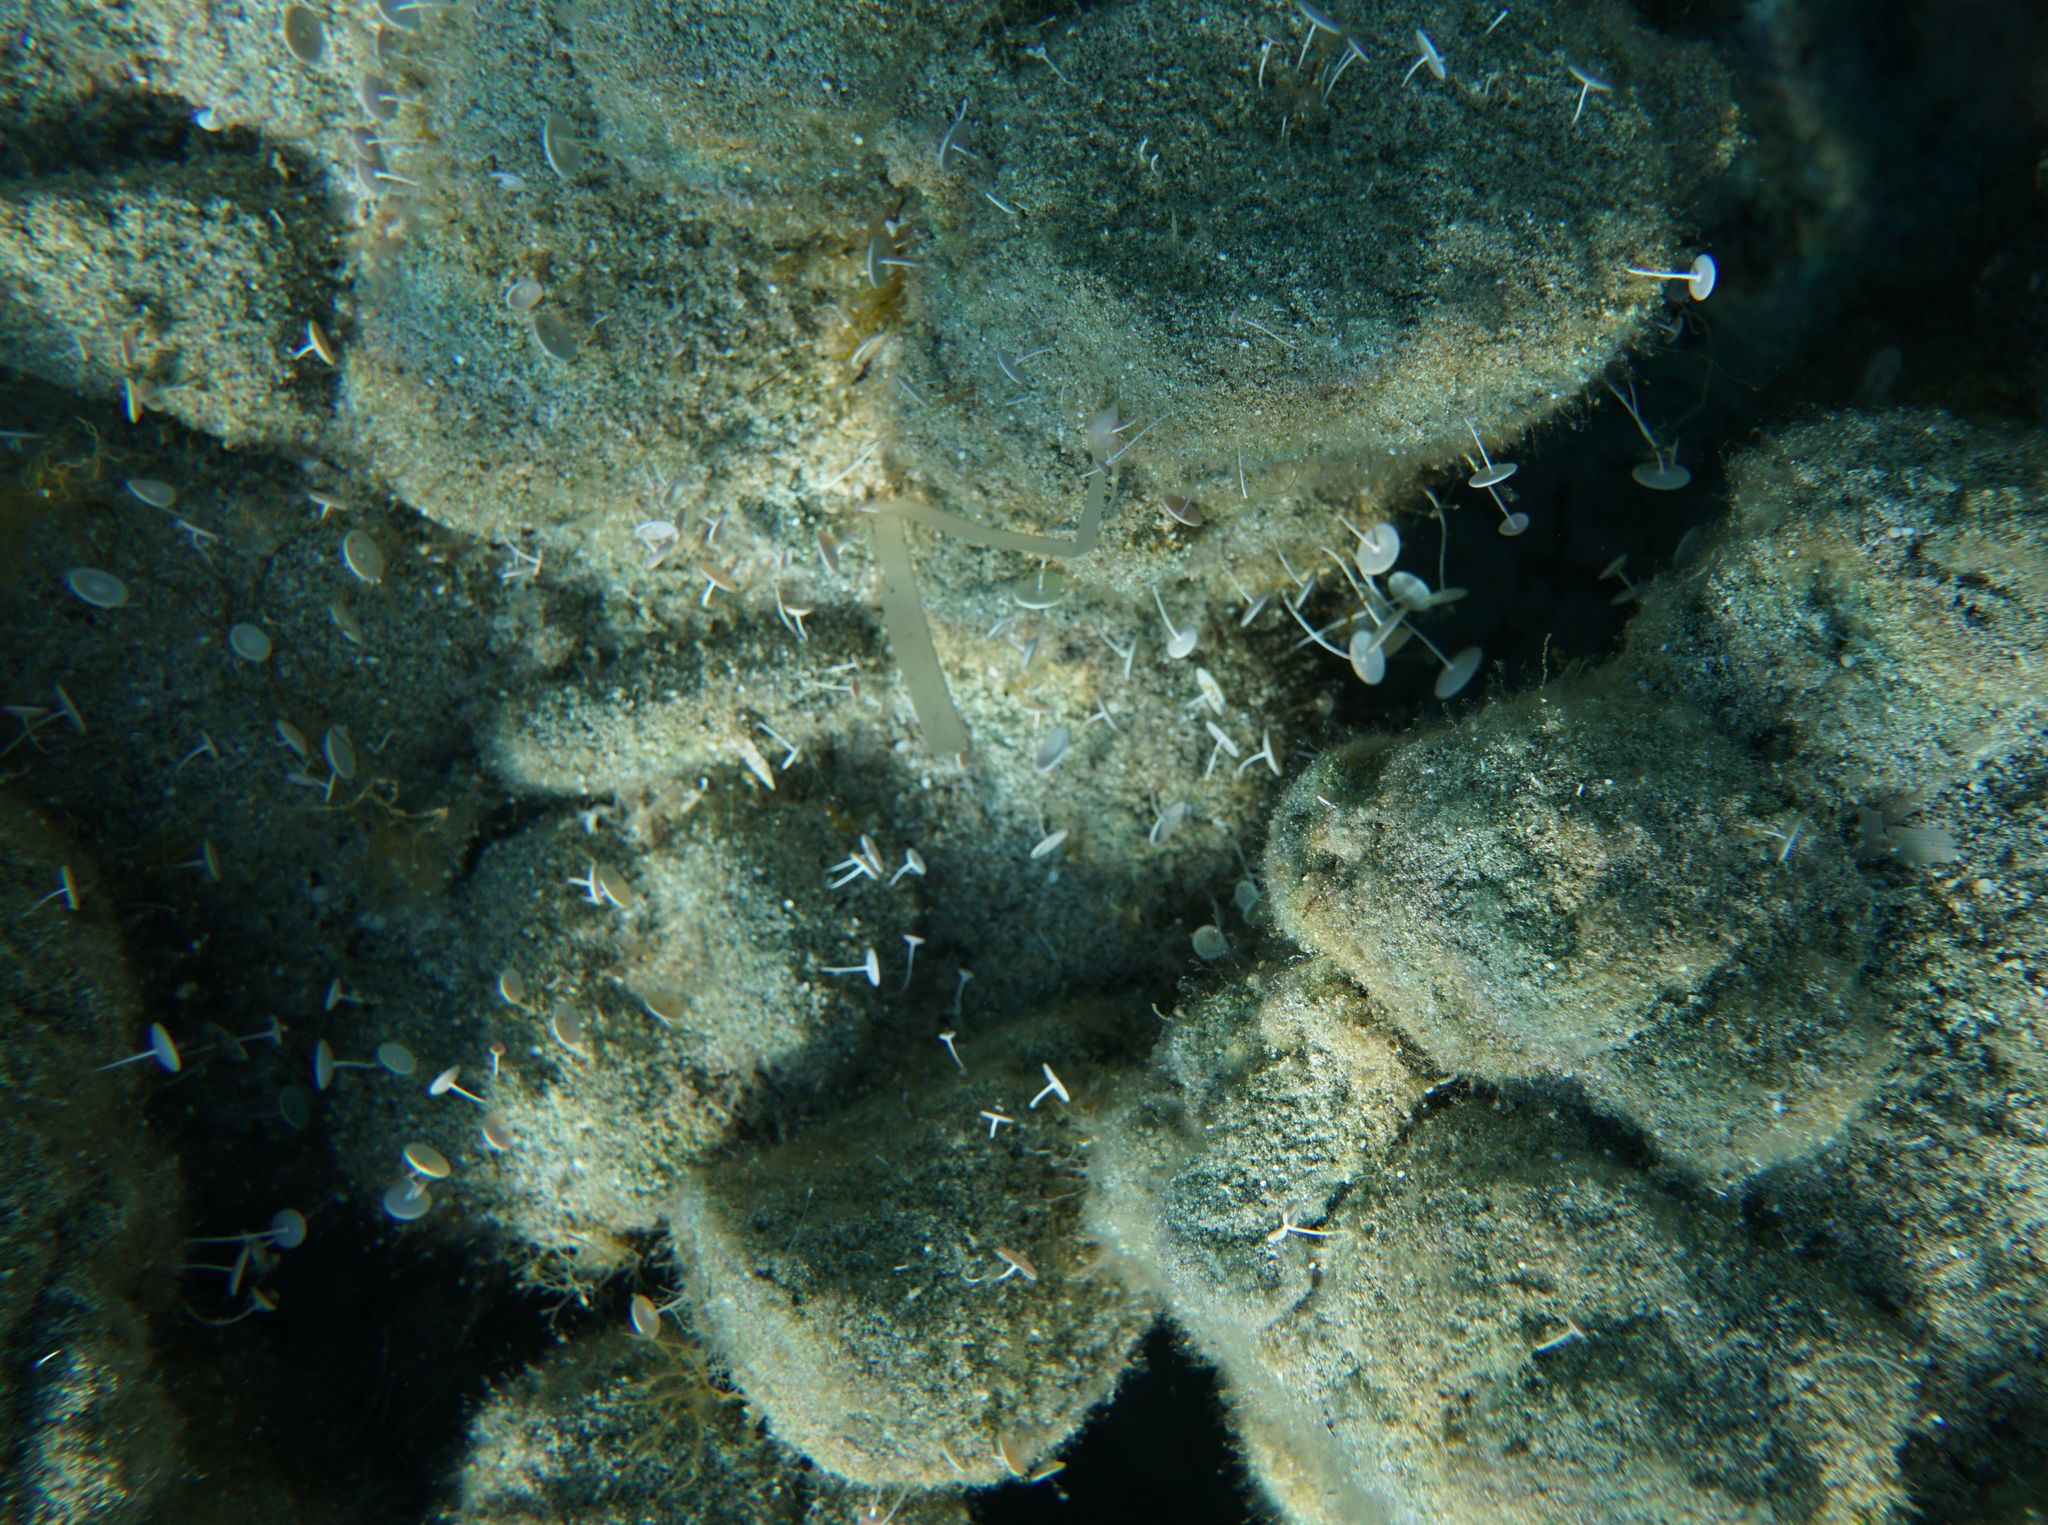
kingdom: Plantae
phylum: Chlorophyta
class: Ulvophyceae
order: Dasycladales
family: Polyphysaceae
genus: Acetabularia
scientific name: Acetabularia acetabulum
